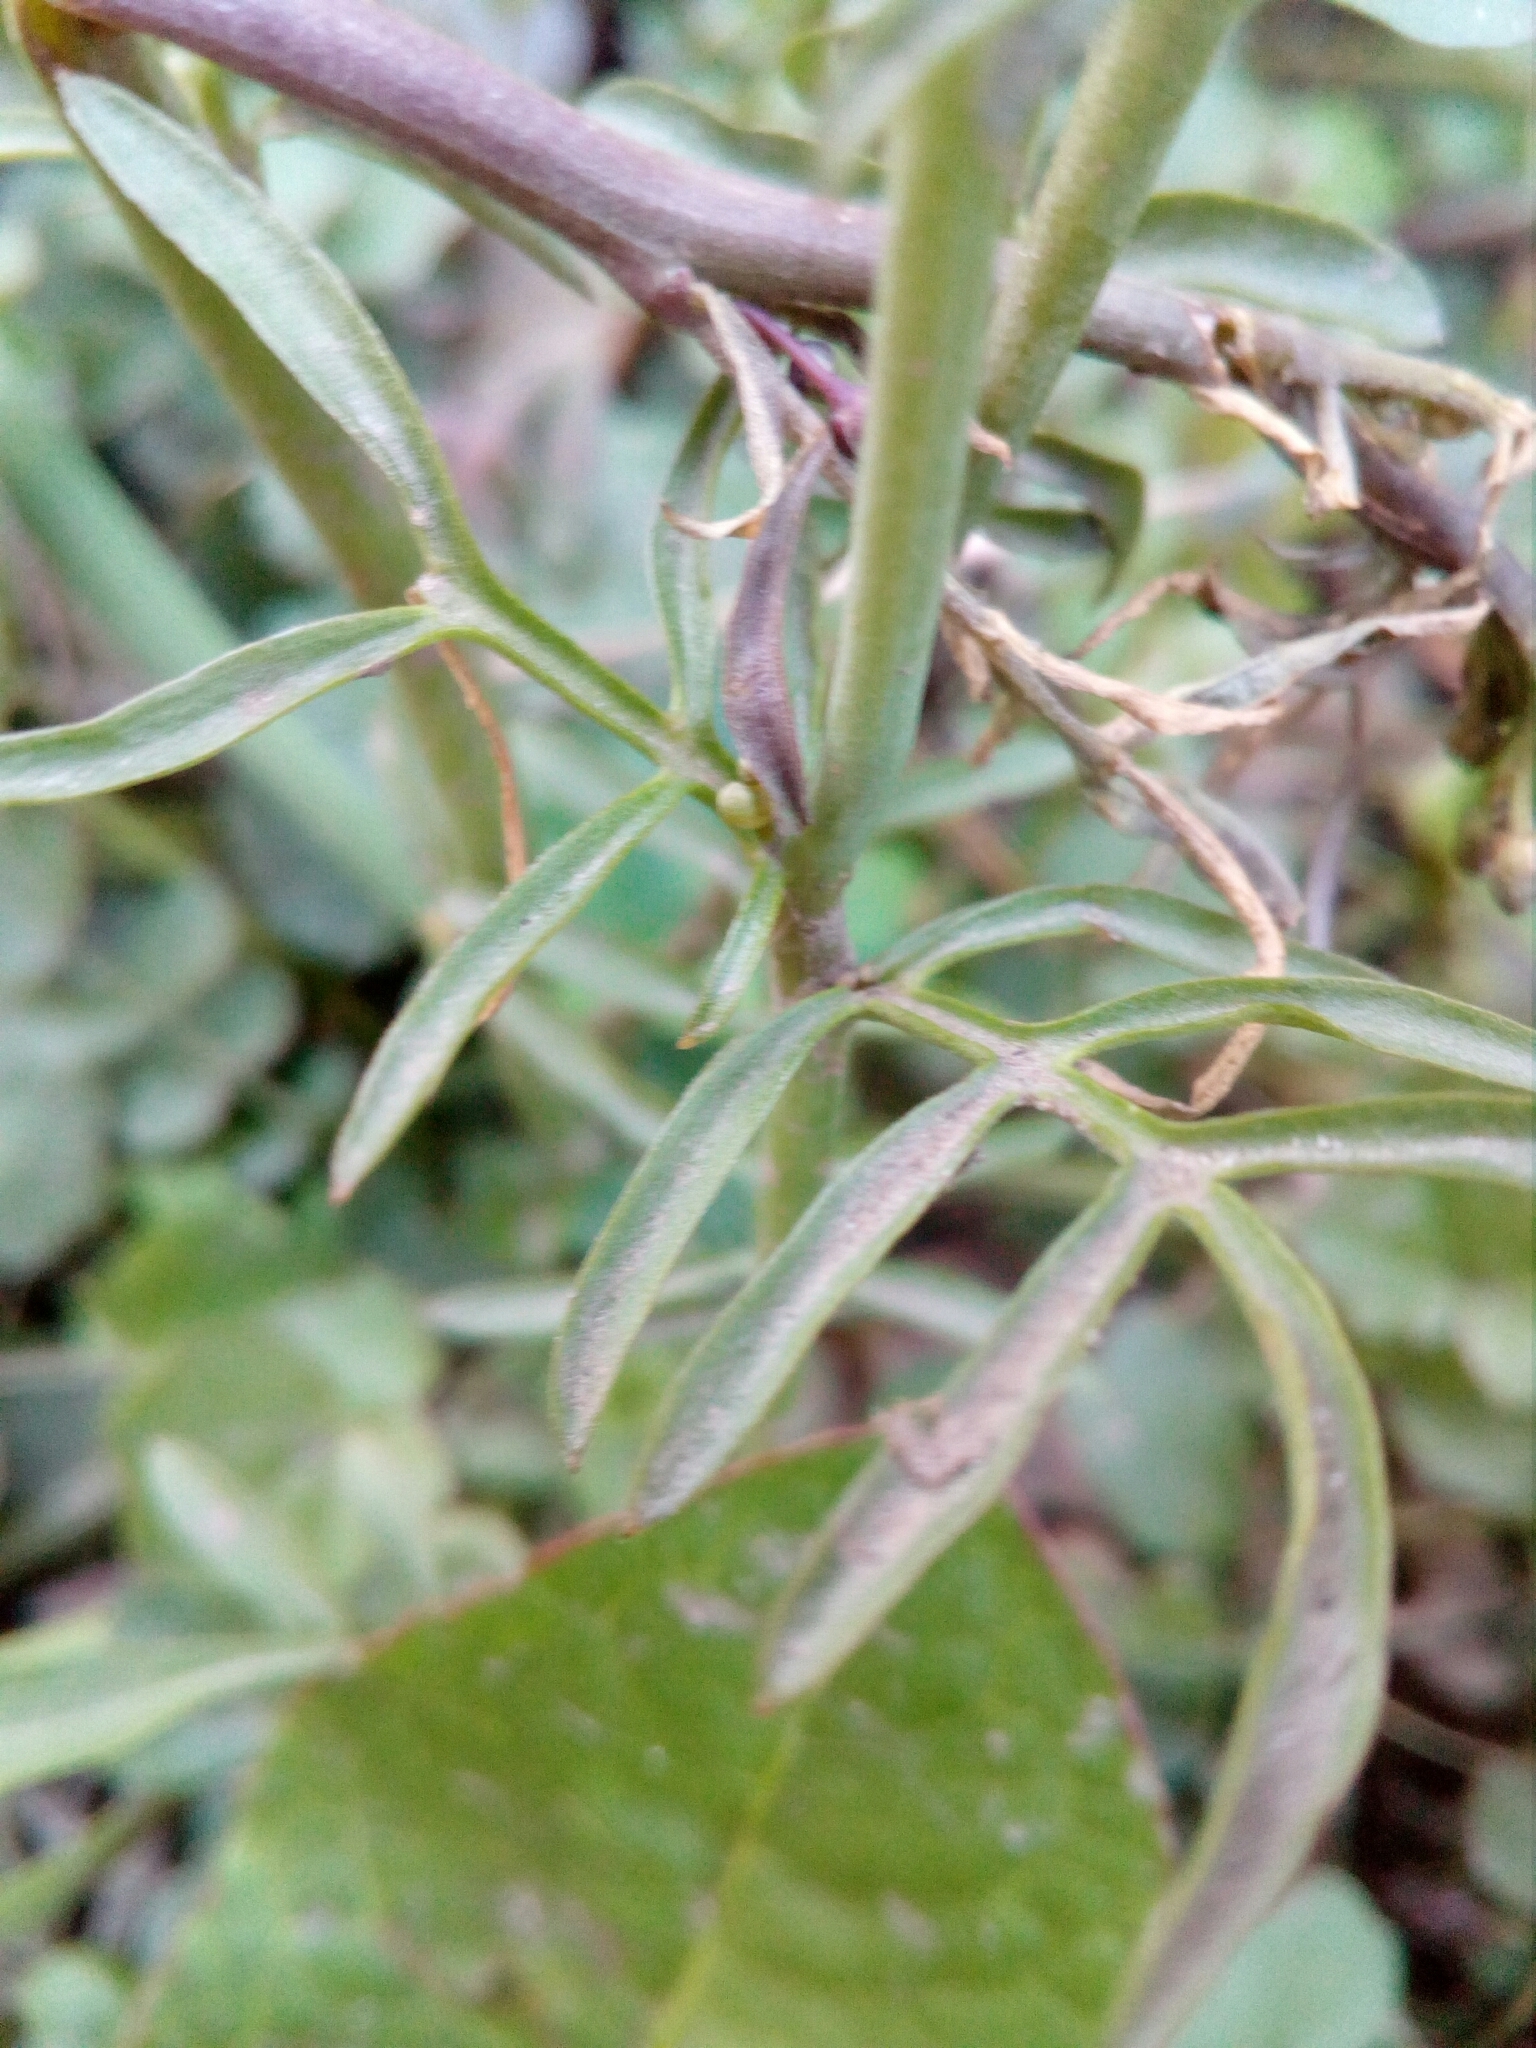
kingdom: Plantae
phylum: Tracheophyta
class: Magnoliopsida
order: Brassicales
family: Brassicaceae
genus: Cardamine
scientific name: Cardamine pratensis
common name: Cuckoo flower
